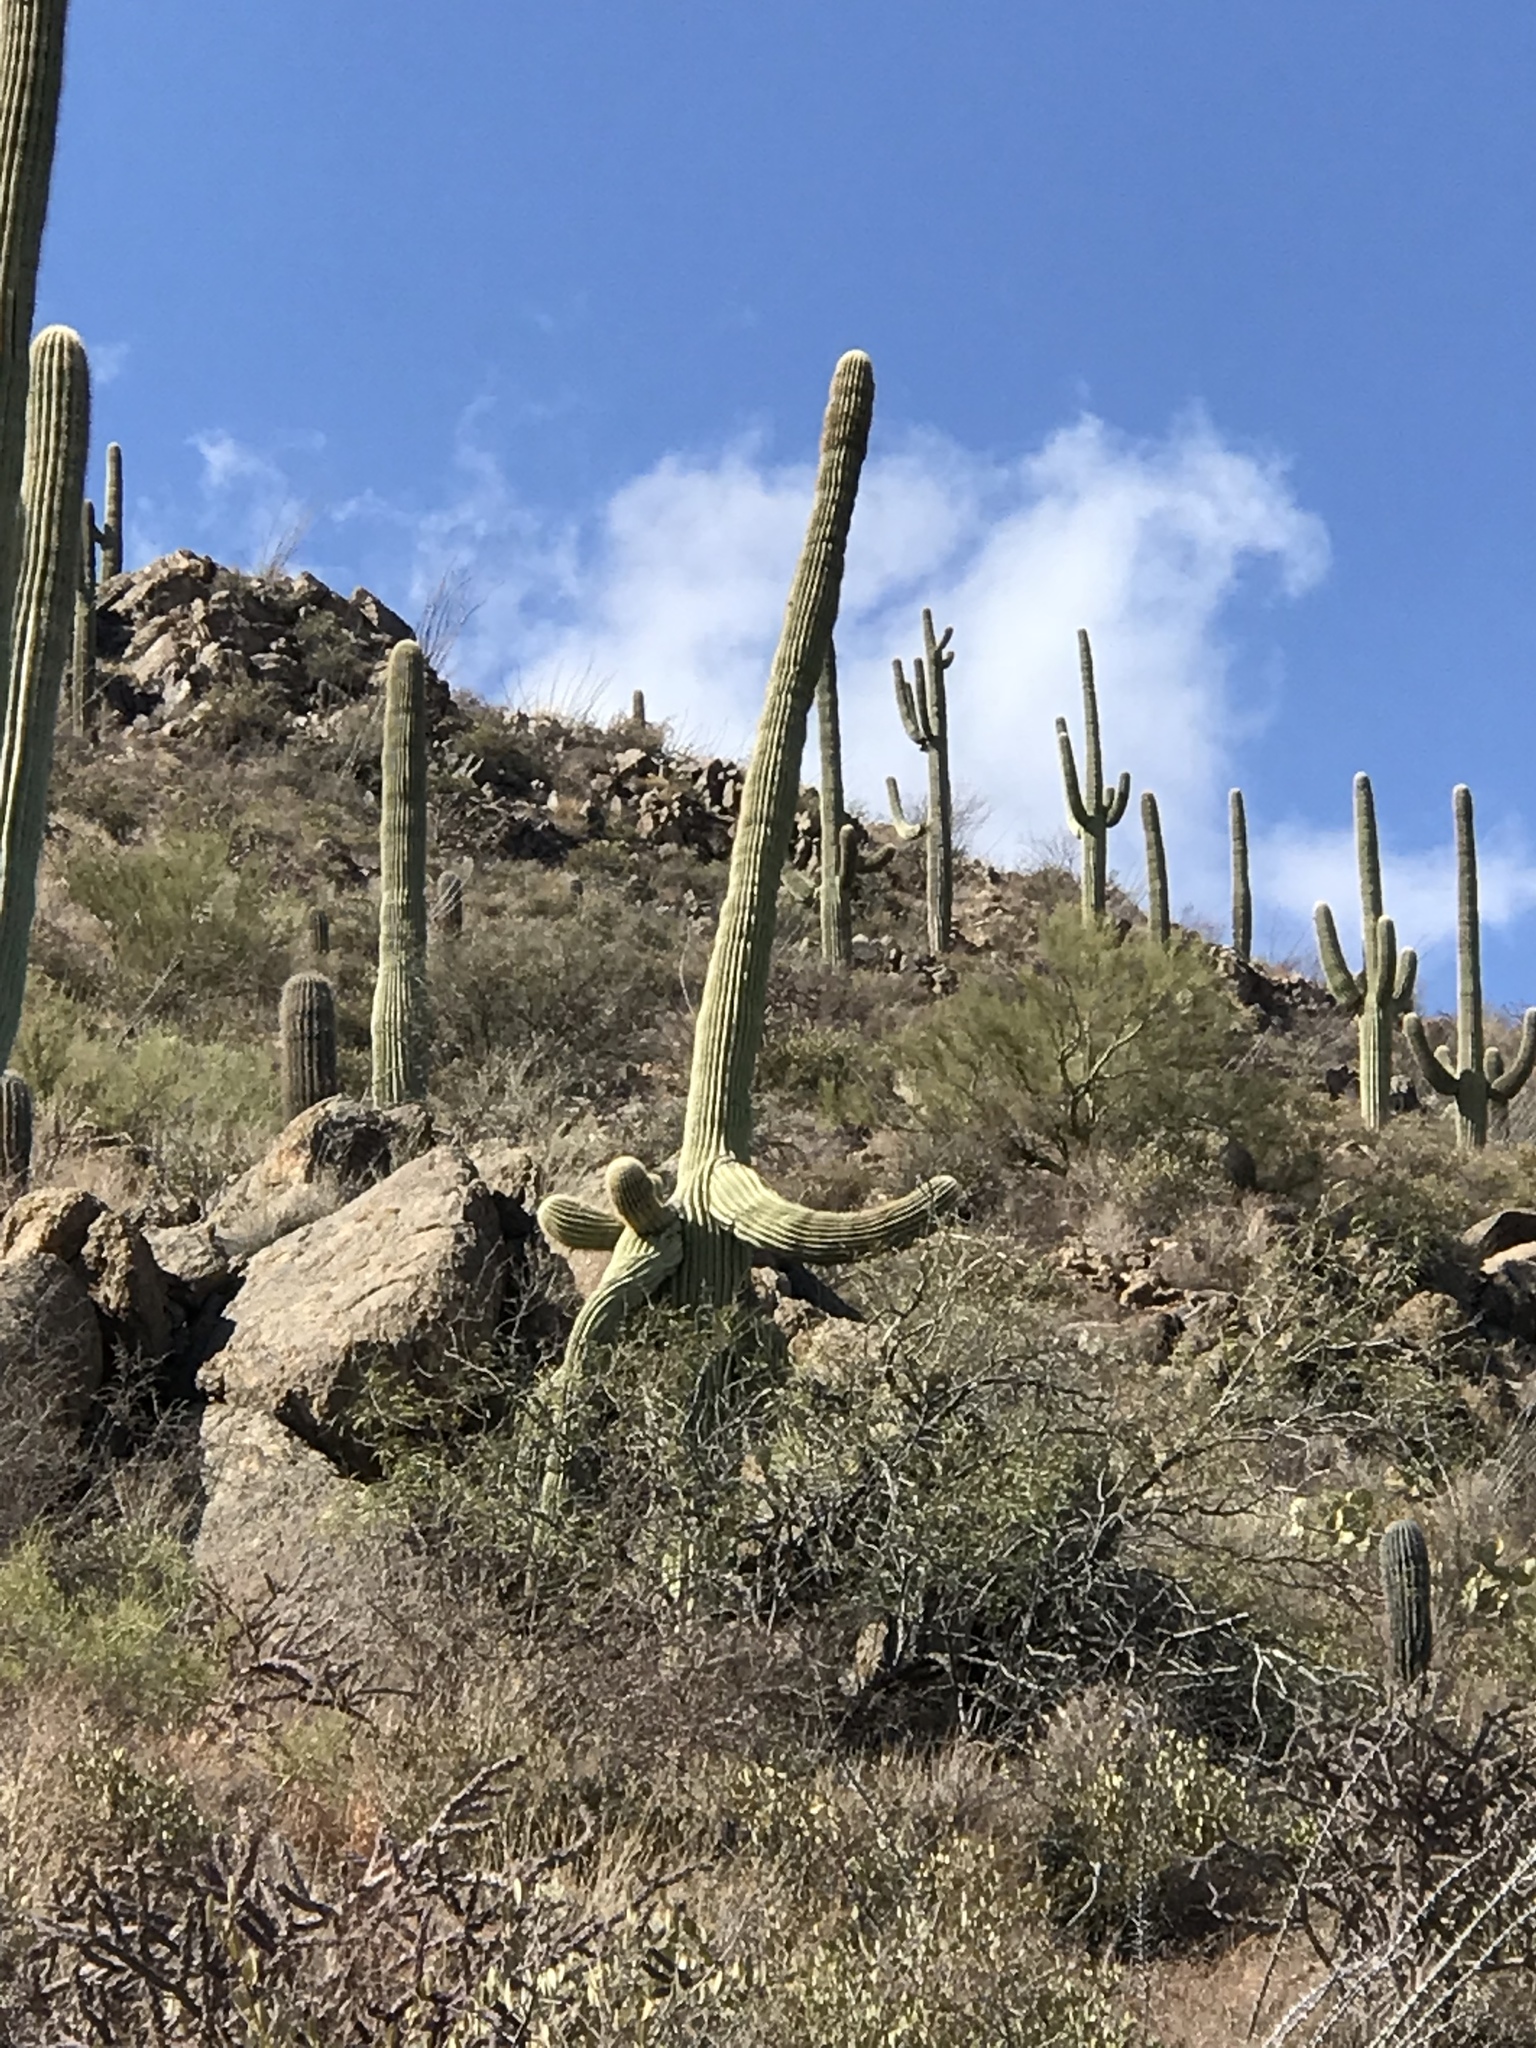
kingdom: Plantae
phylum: Tracheophyta
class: Magnoliopsida
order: Caryophyllales
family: Cactaceae
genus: Carnegiea
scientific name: Carnegiea gigantea
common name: Saguaro
